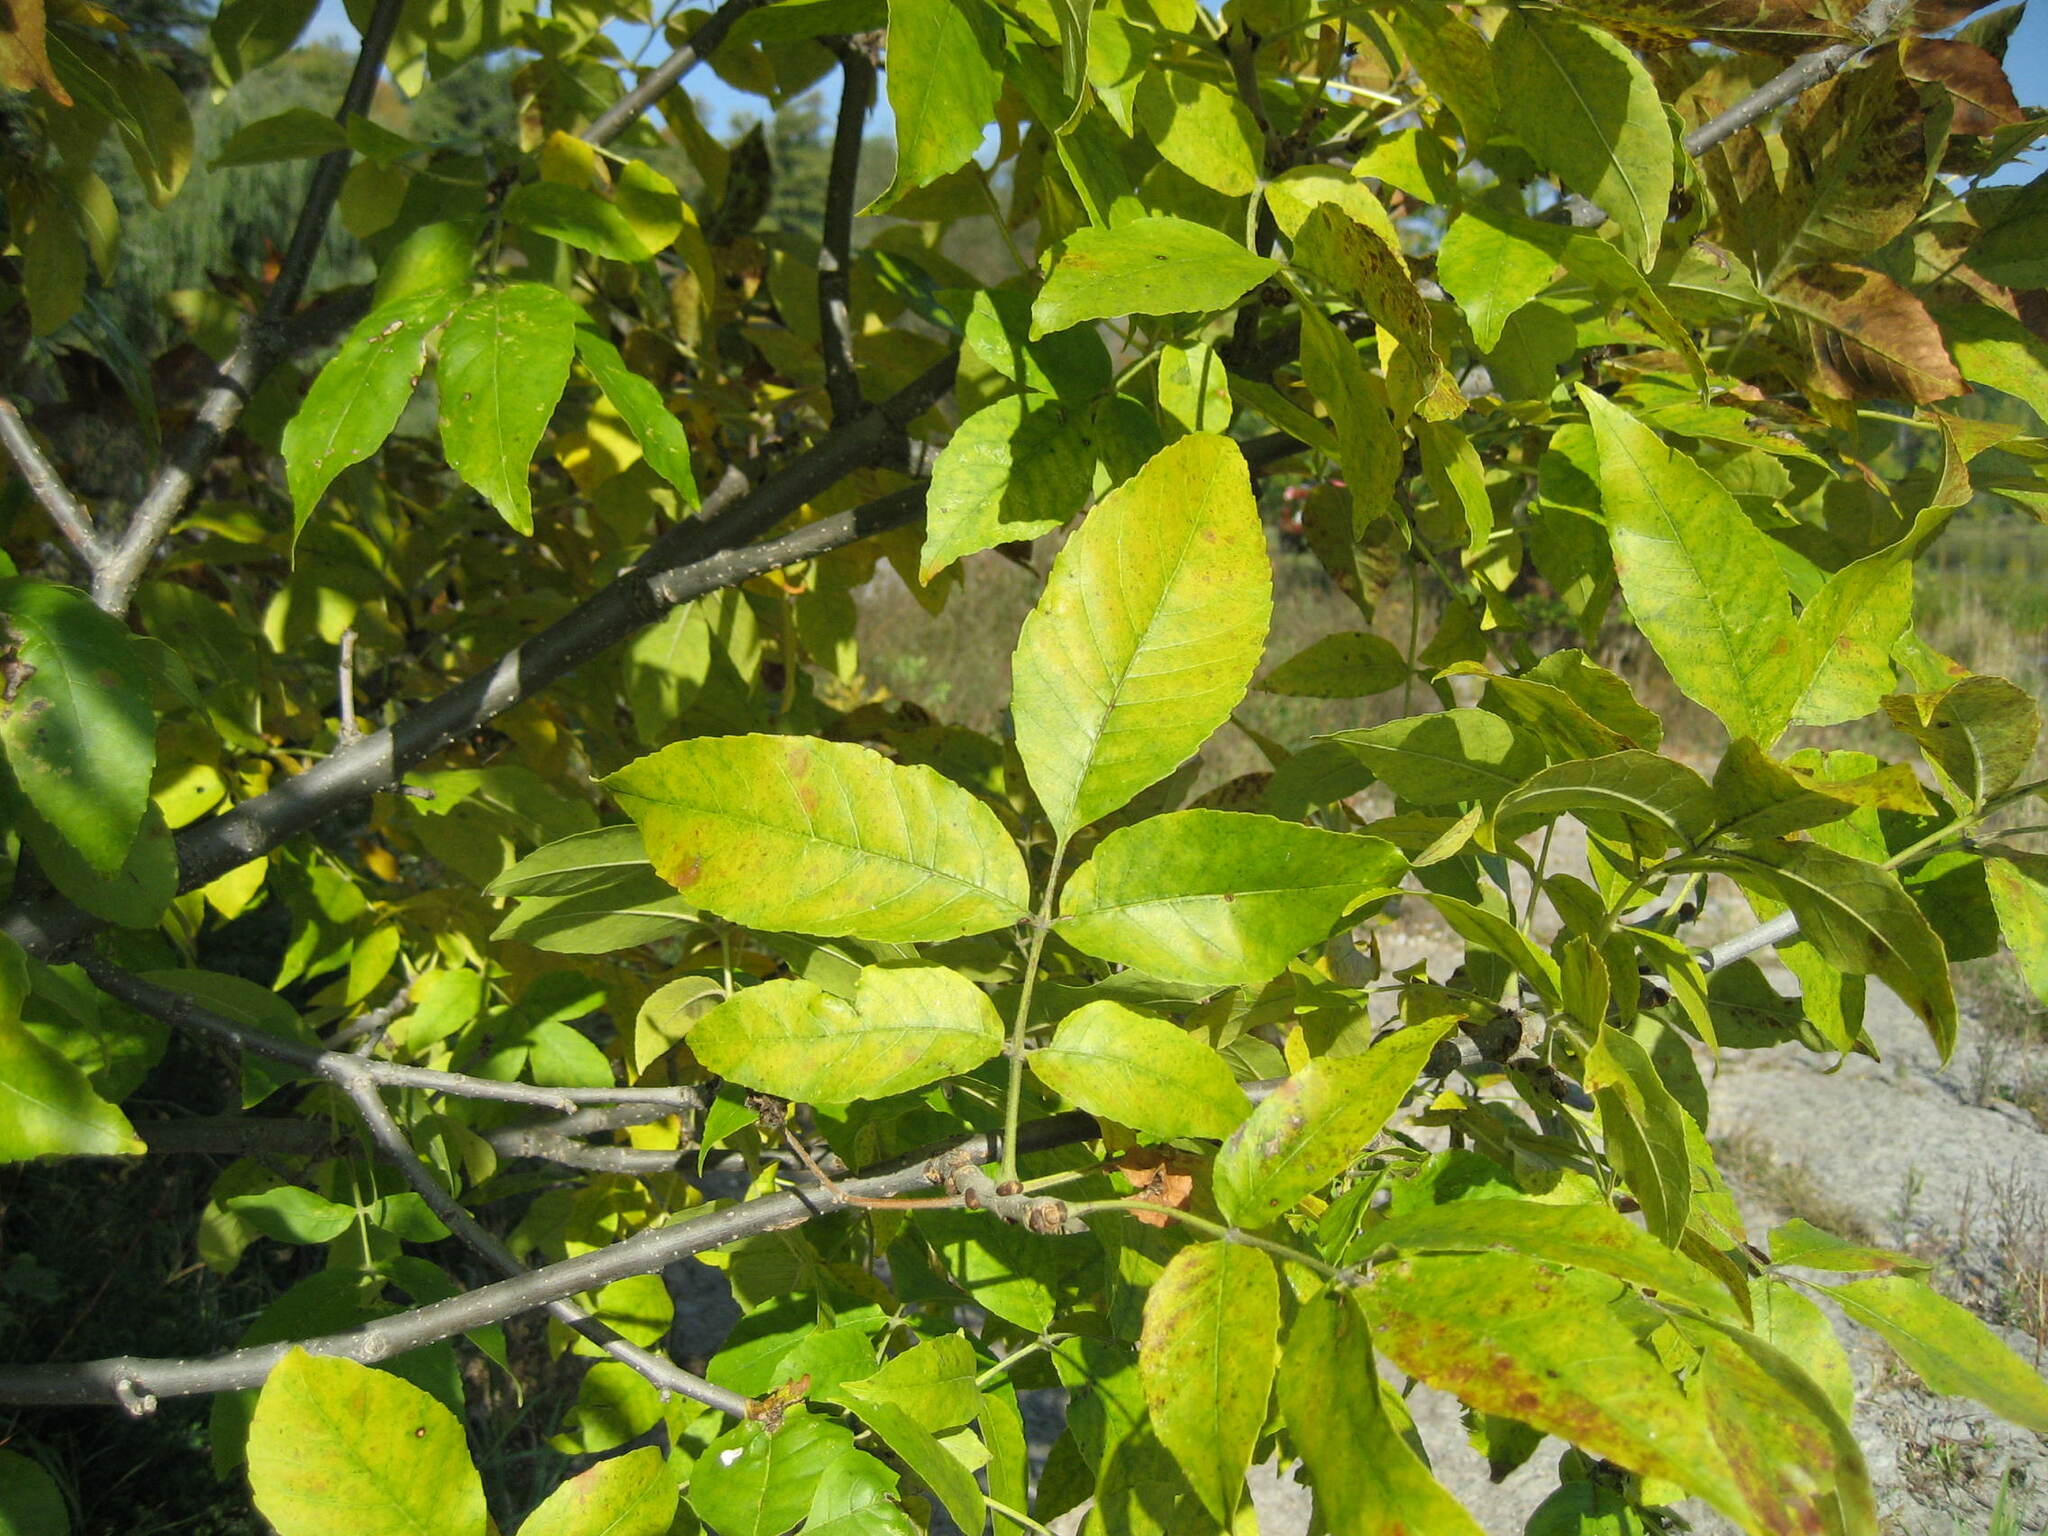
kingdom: Plantae
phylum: Tracheophyta
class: Magnoliopsida
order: Lamiales
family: Oleaceae
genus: Fraxinus
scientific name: Fraxinus pennsylvanica
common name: Green ash
